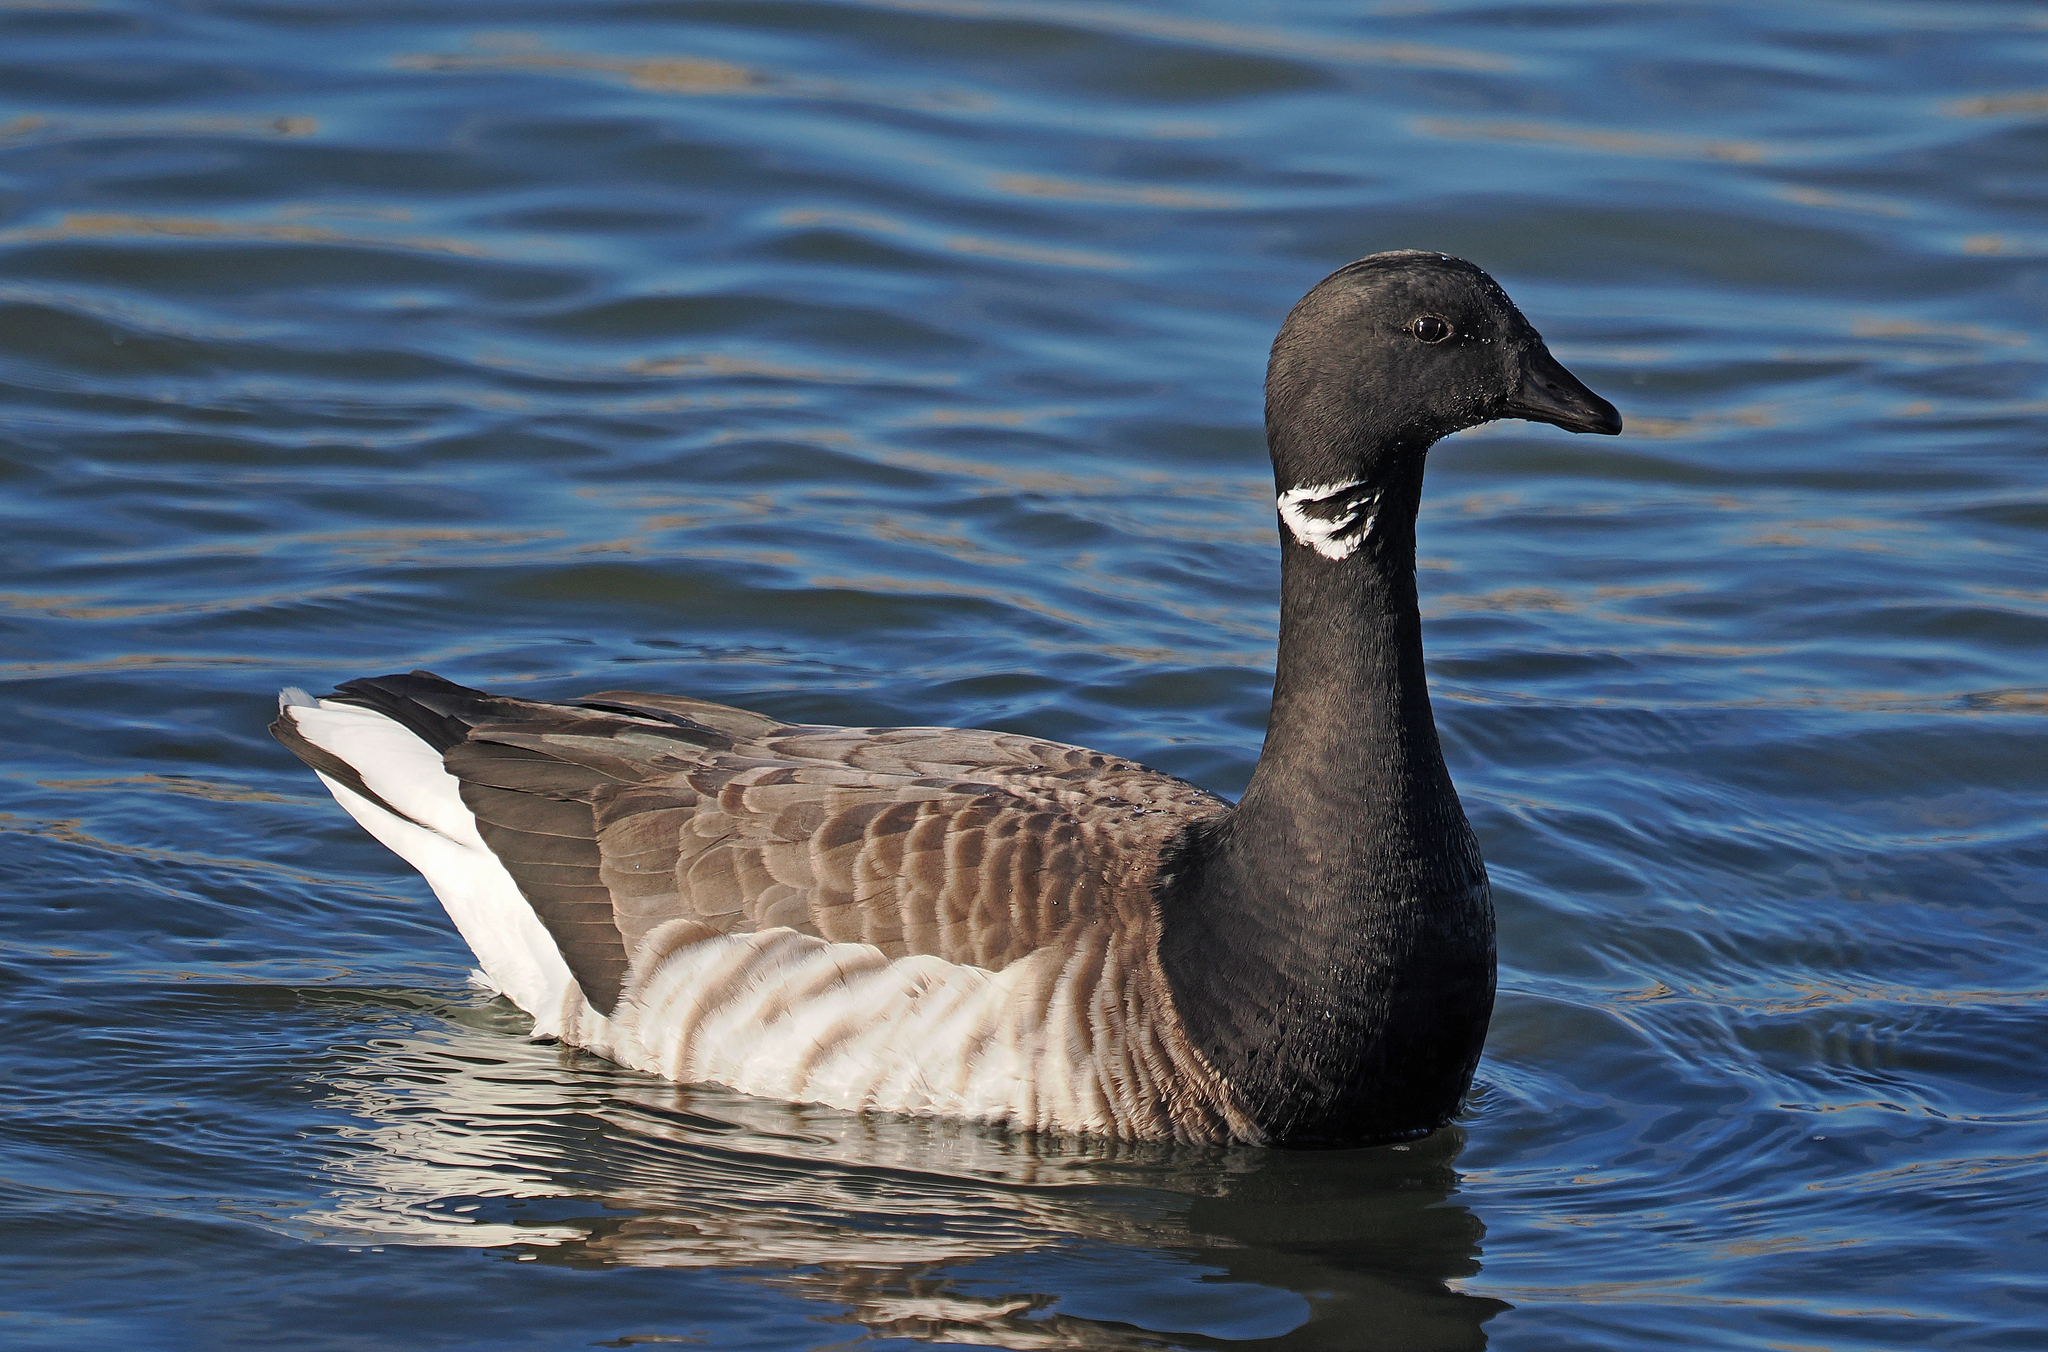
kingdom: Animalia
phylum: Chordata
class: Aves
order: Anseriformes
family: Anatidae
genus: Branta
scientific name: Branta bernicla
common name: Brant goose
